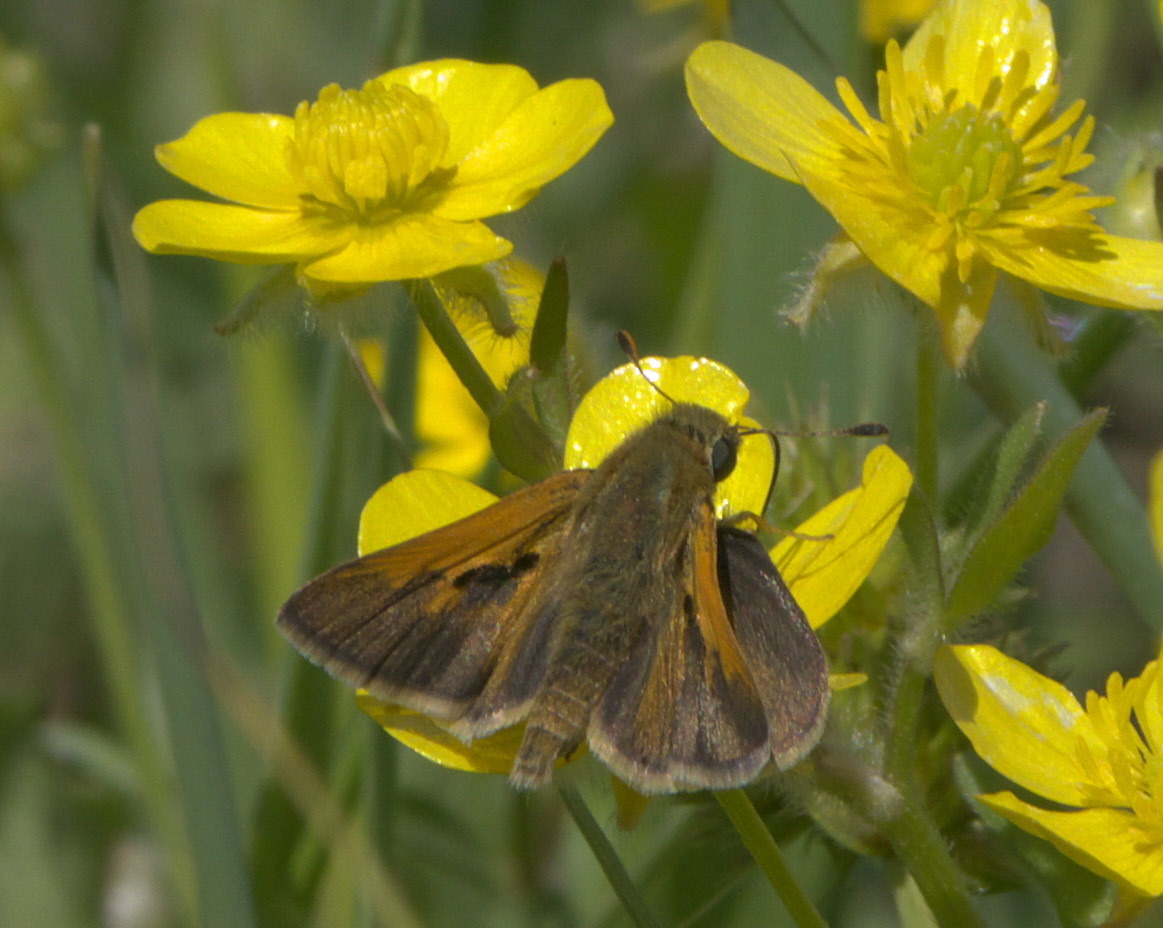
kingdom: Animalia
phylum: Arthropoda
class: Insecta
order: Lepidoptera
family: Hesperiidae
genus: Polites
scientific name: Polites themistocles
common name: Tawny-edged skipper
